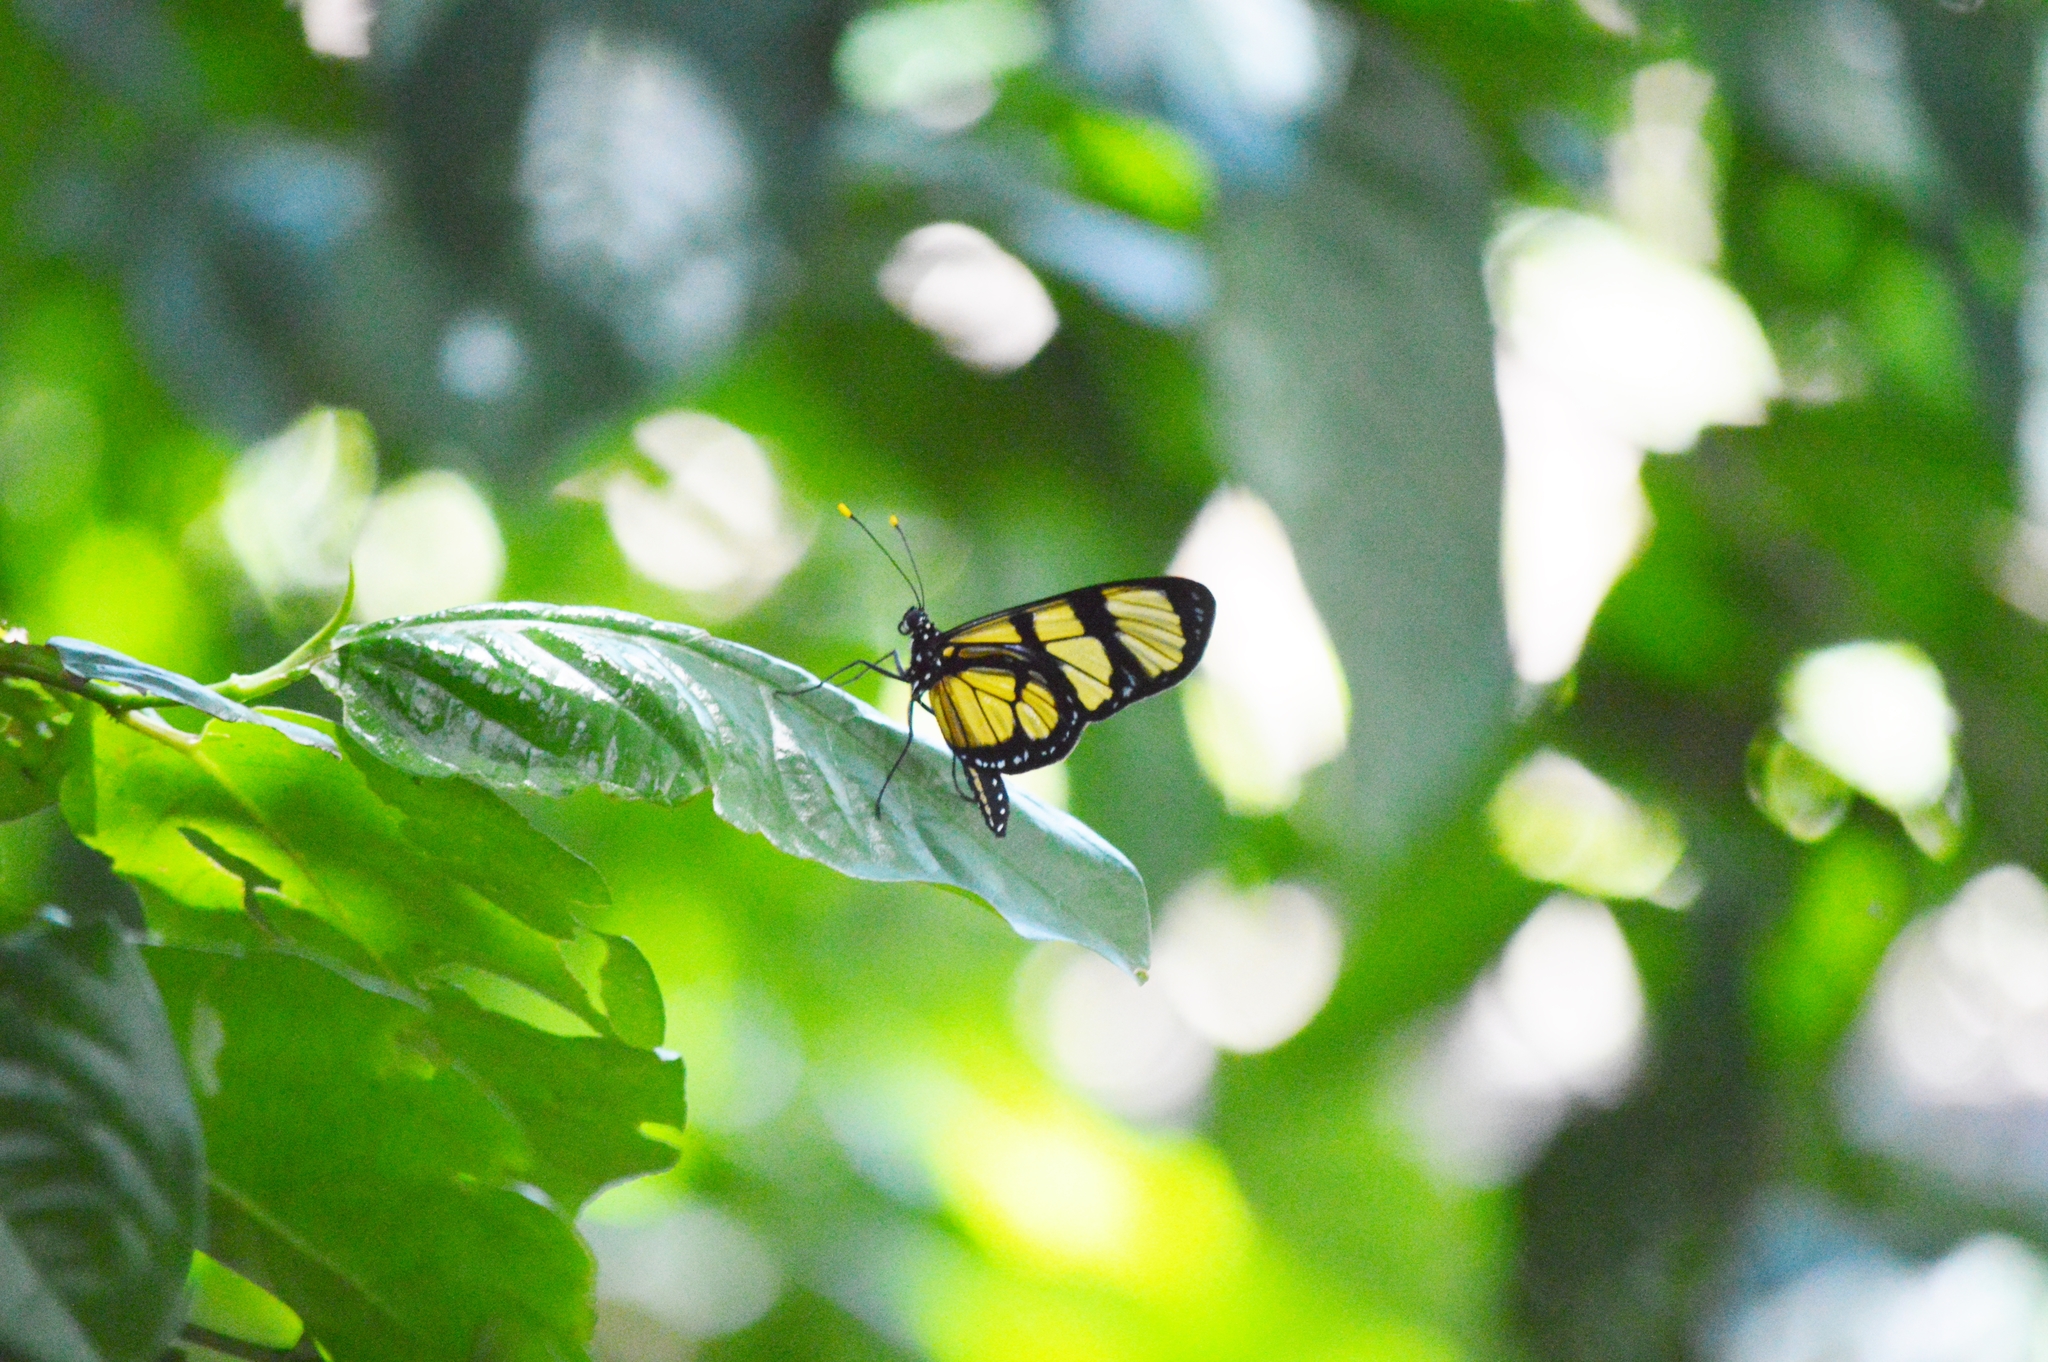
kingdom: Animalia
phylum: Arthropoda
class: Insecta
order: Lepidoptera
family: Nymphalidae
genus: Methona
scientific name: Methona themisto
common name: Themisto amberwing
